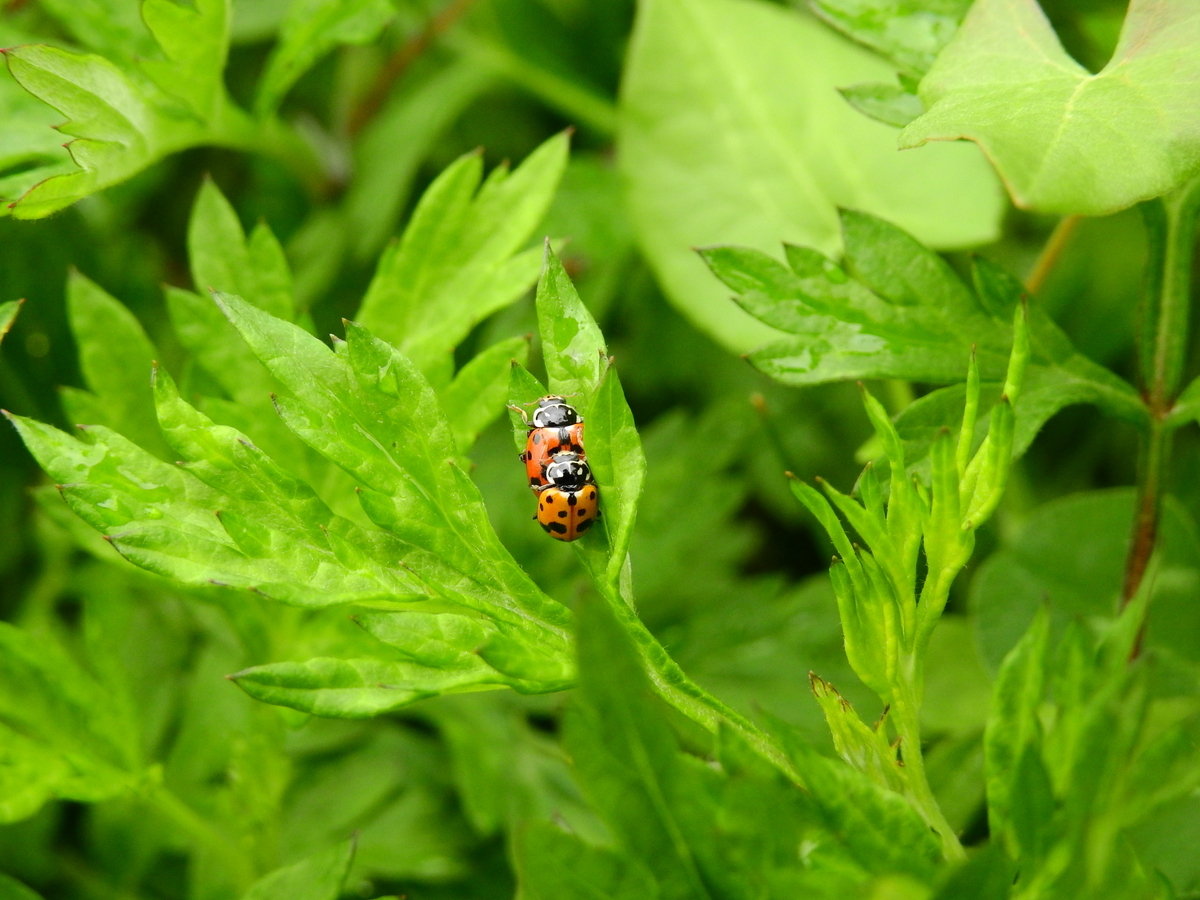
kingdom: Animalia
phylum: Arthropoda
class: Insecta
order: Coleoptera
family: Coccinellidae
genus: Hippodamia
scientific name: Hippodamia variegata
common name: Ladybird beetle
